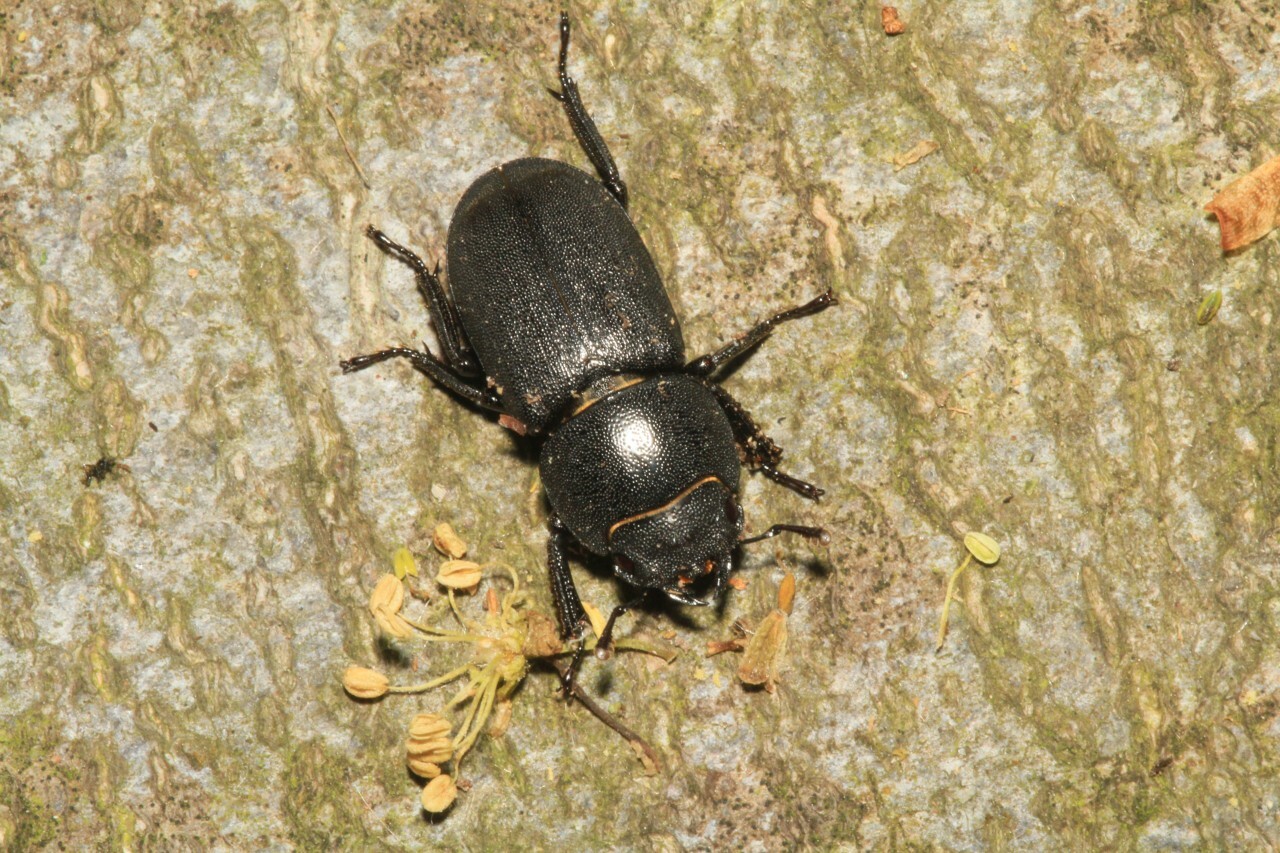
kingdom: Animalia
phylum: Arthropoda
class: Insecta
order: Coleoptera
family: Lucanidae
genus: Dorcus
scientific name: Dorcus parallelipipedus
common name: Lesser stag beetle
